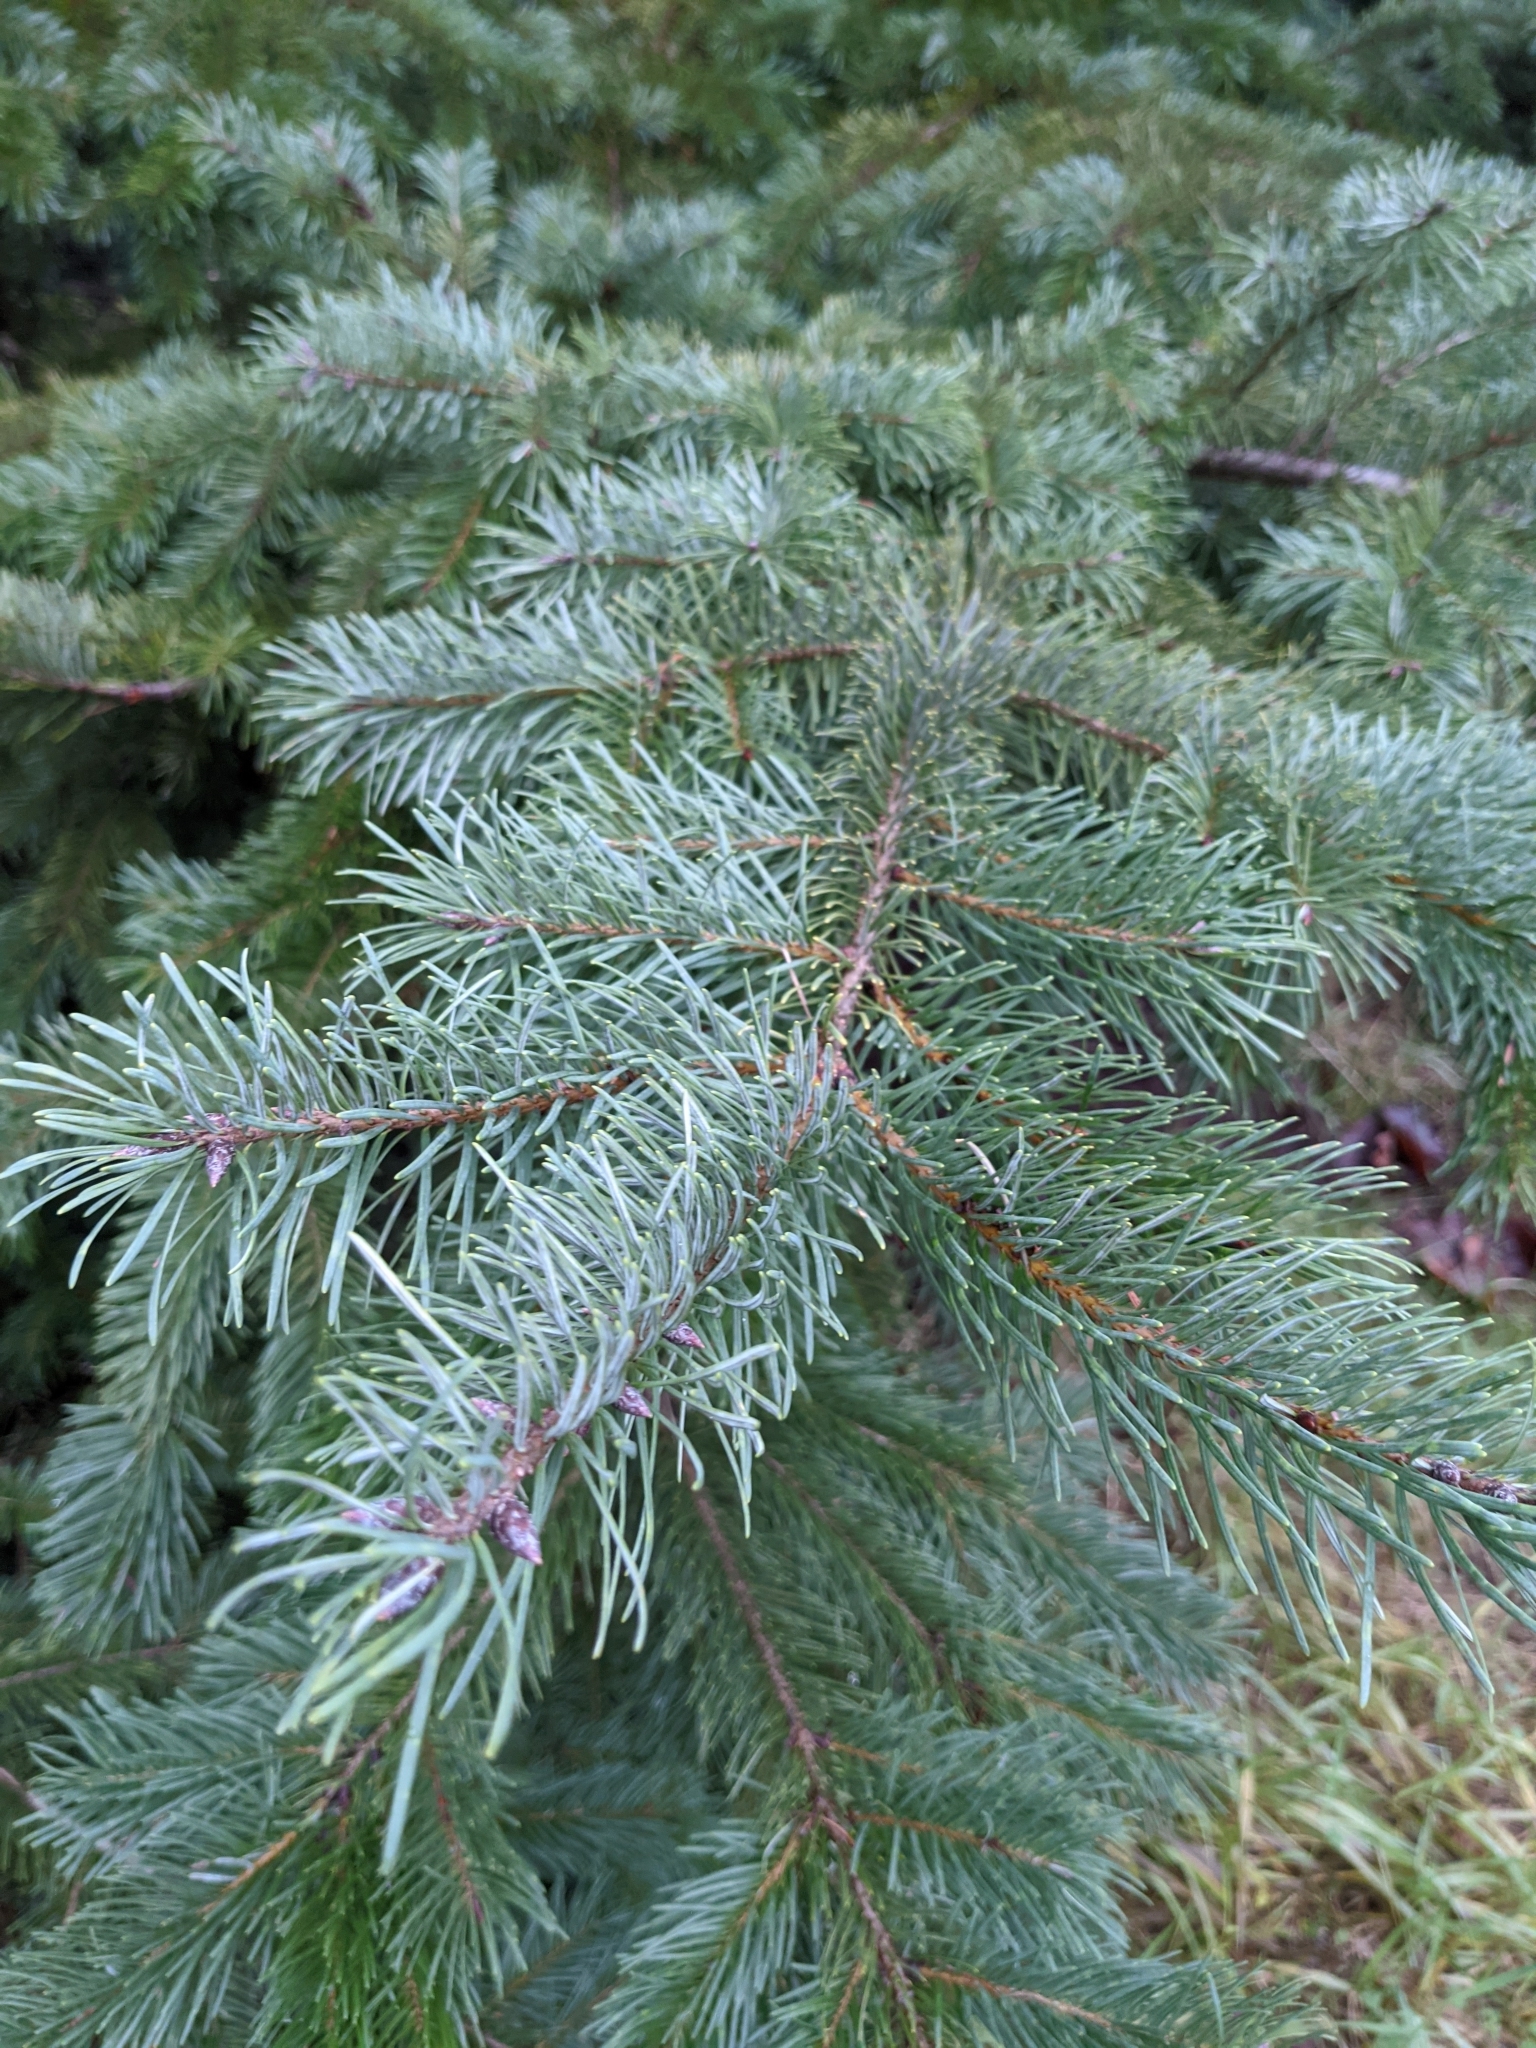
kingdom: Plantae
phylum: Tracheophyta
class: Pinopsida
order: Pinales
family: Pinaceae
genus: Pseudotsuga
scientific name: Pseudotsuga menziesii
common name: Douglas fir
